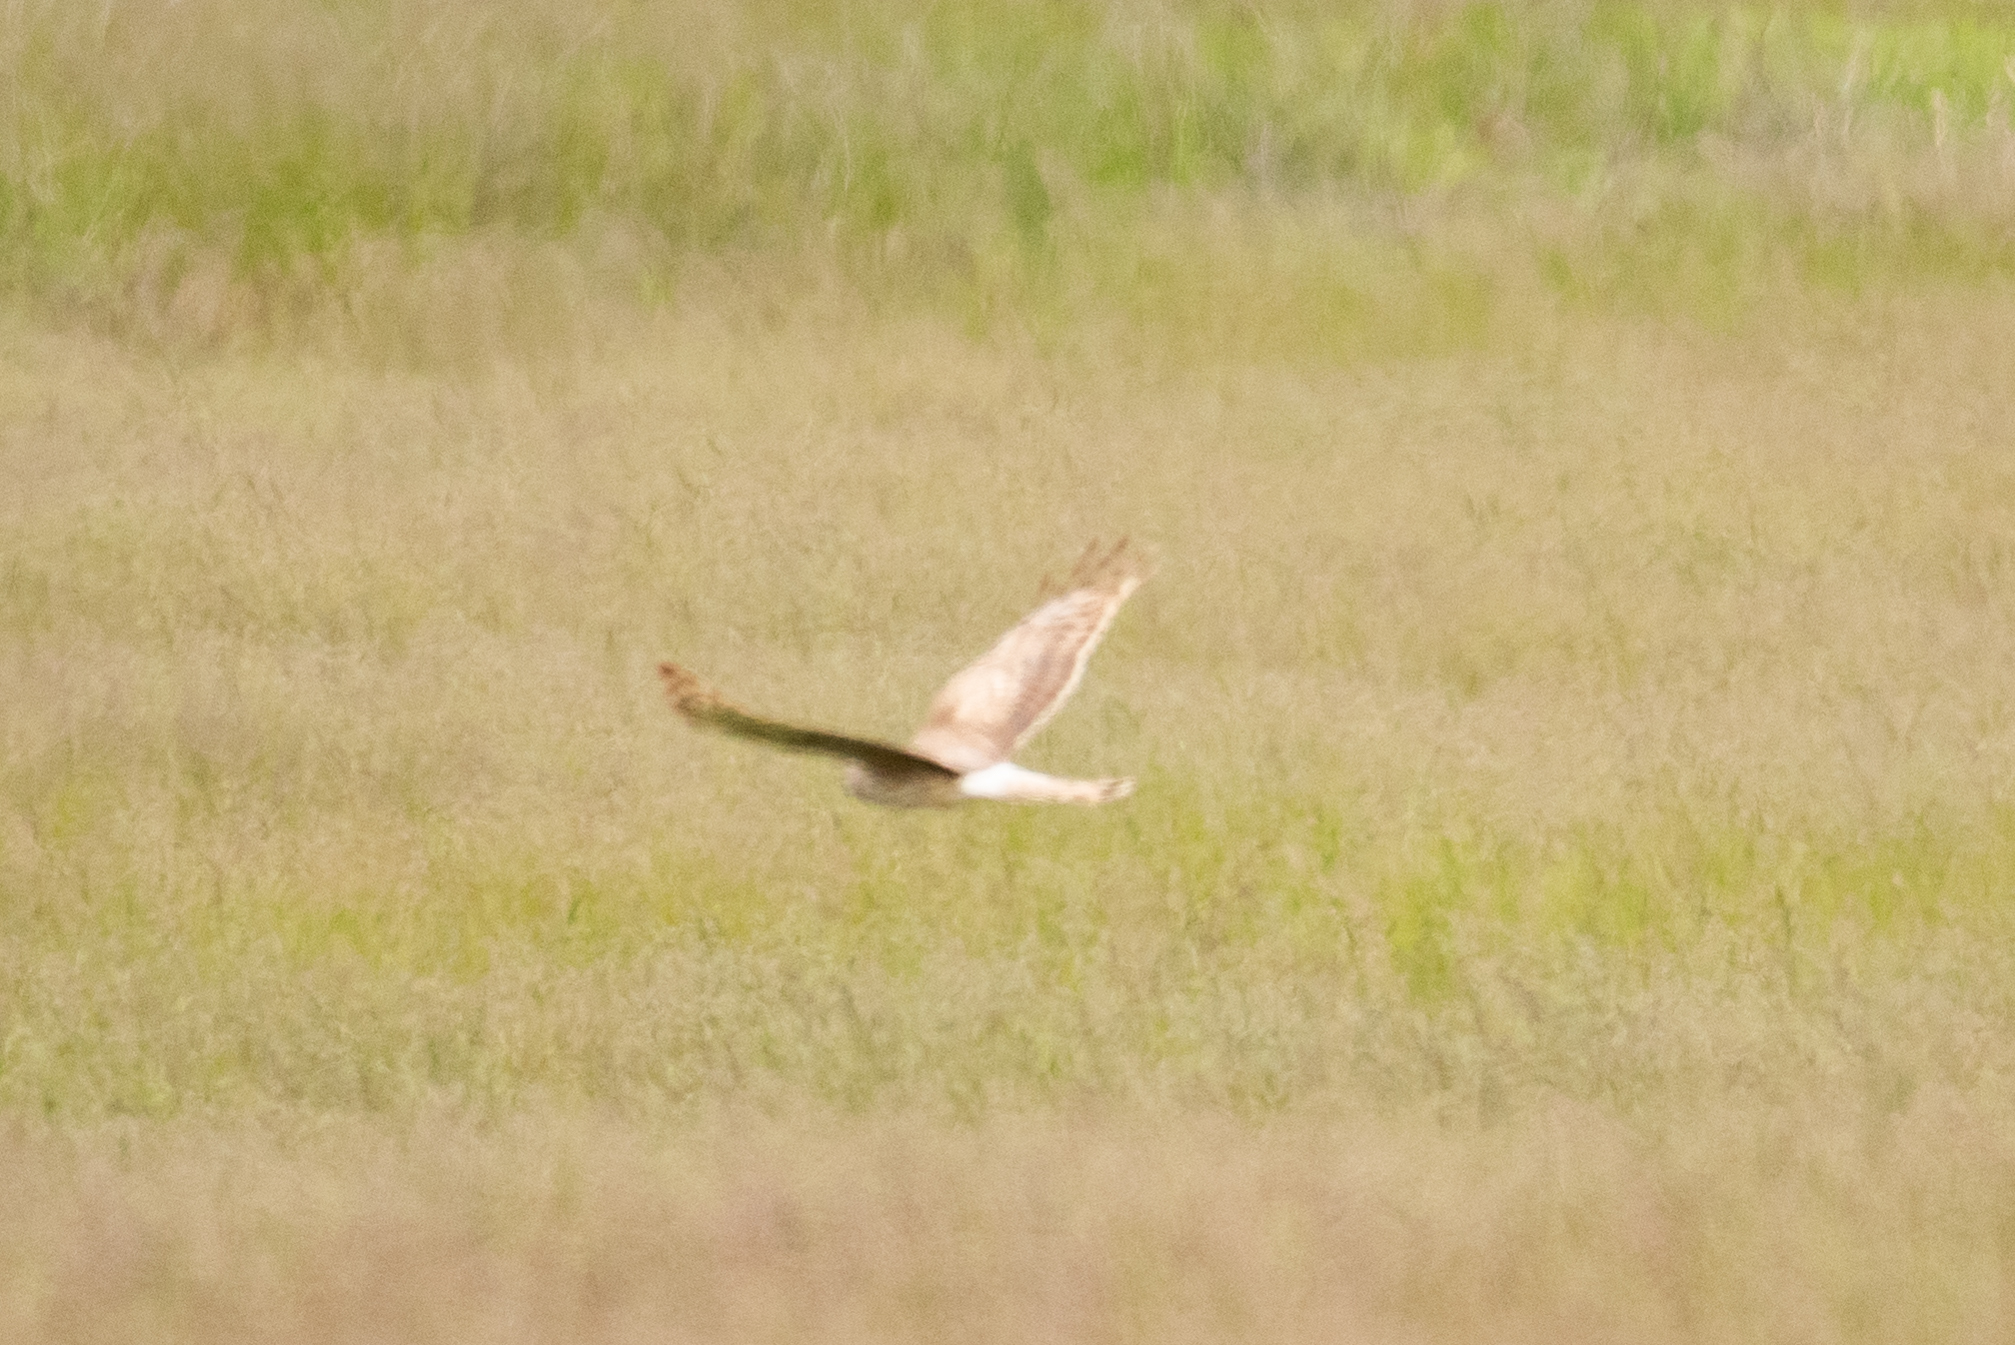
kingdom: Animalia
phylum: Chordata
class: Aves
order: Accipitriformes
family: Accipitridae
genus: Circus
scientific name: Circus cyaneus
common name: Hen harrier
